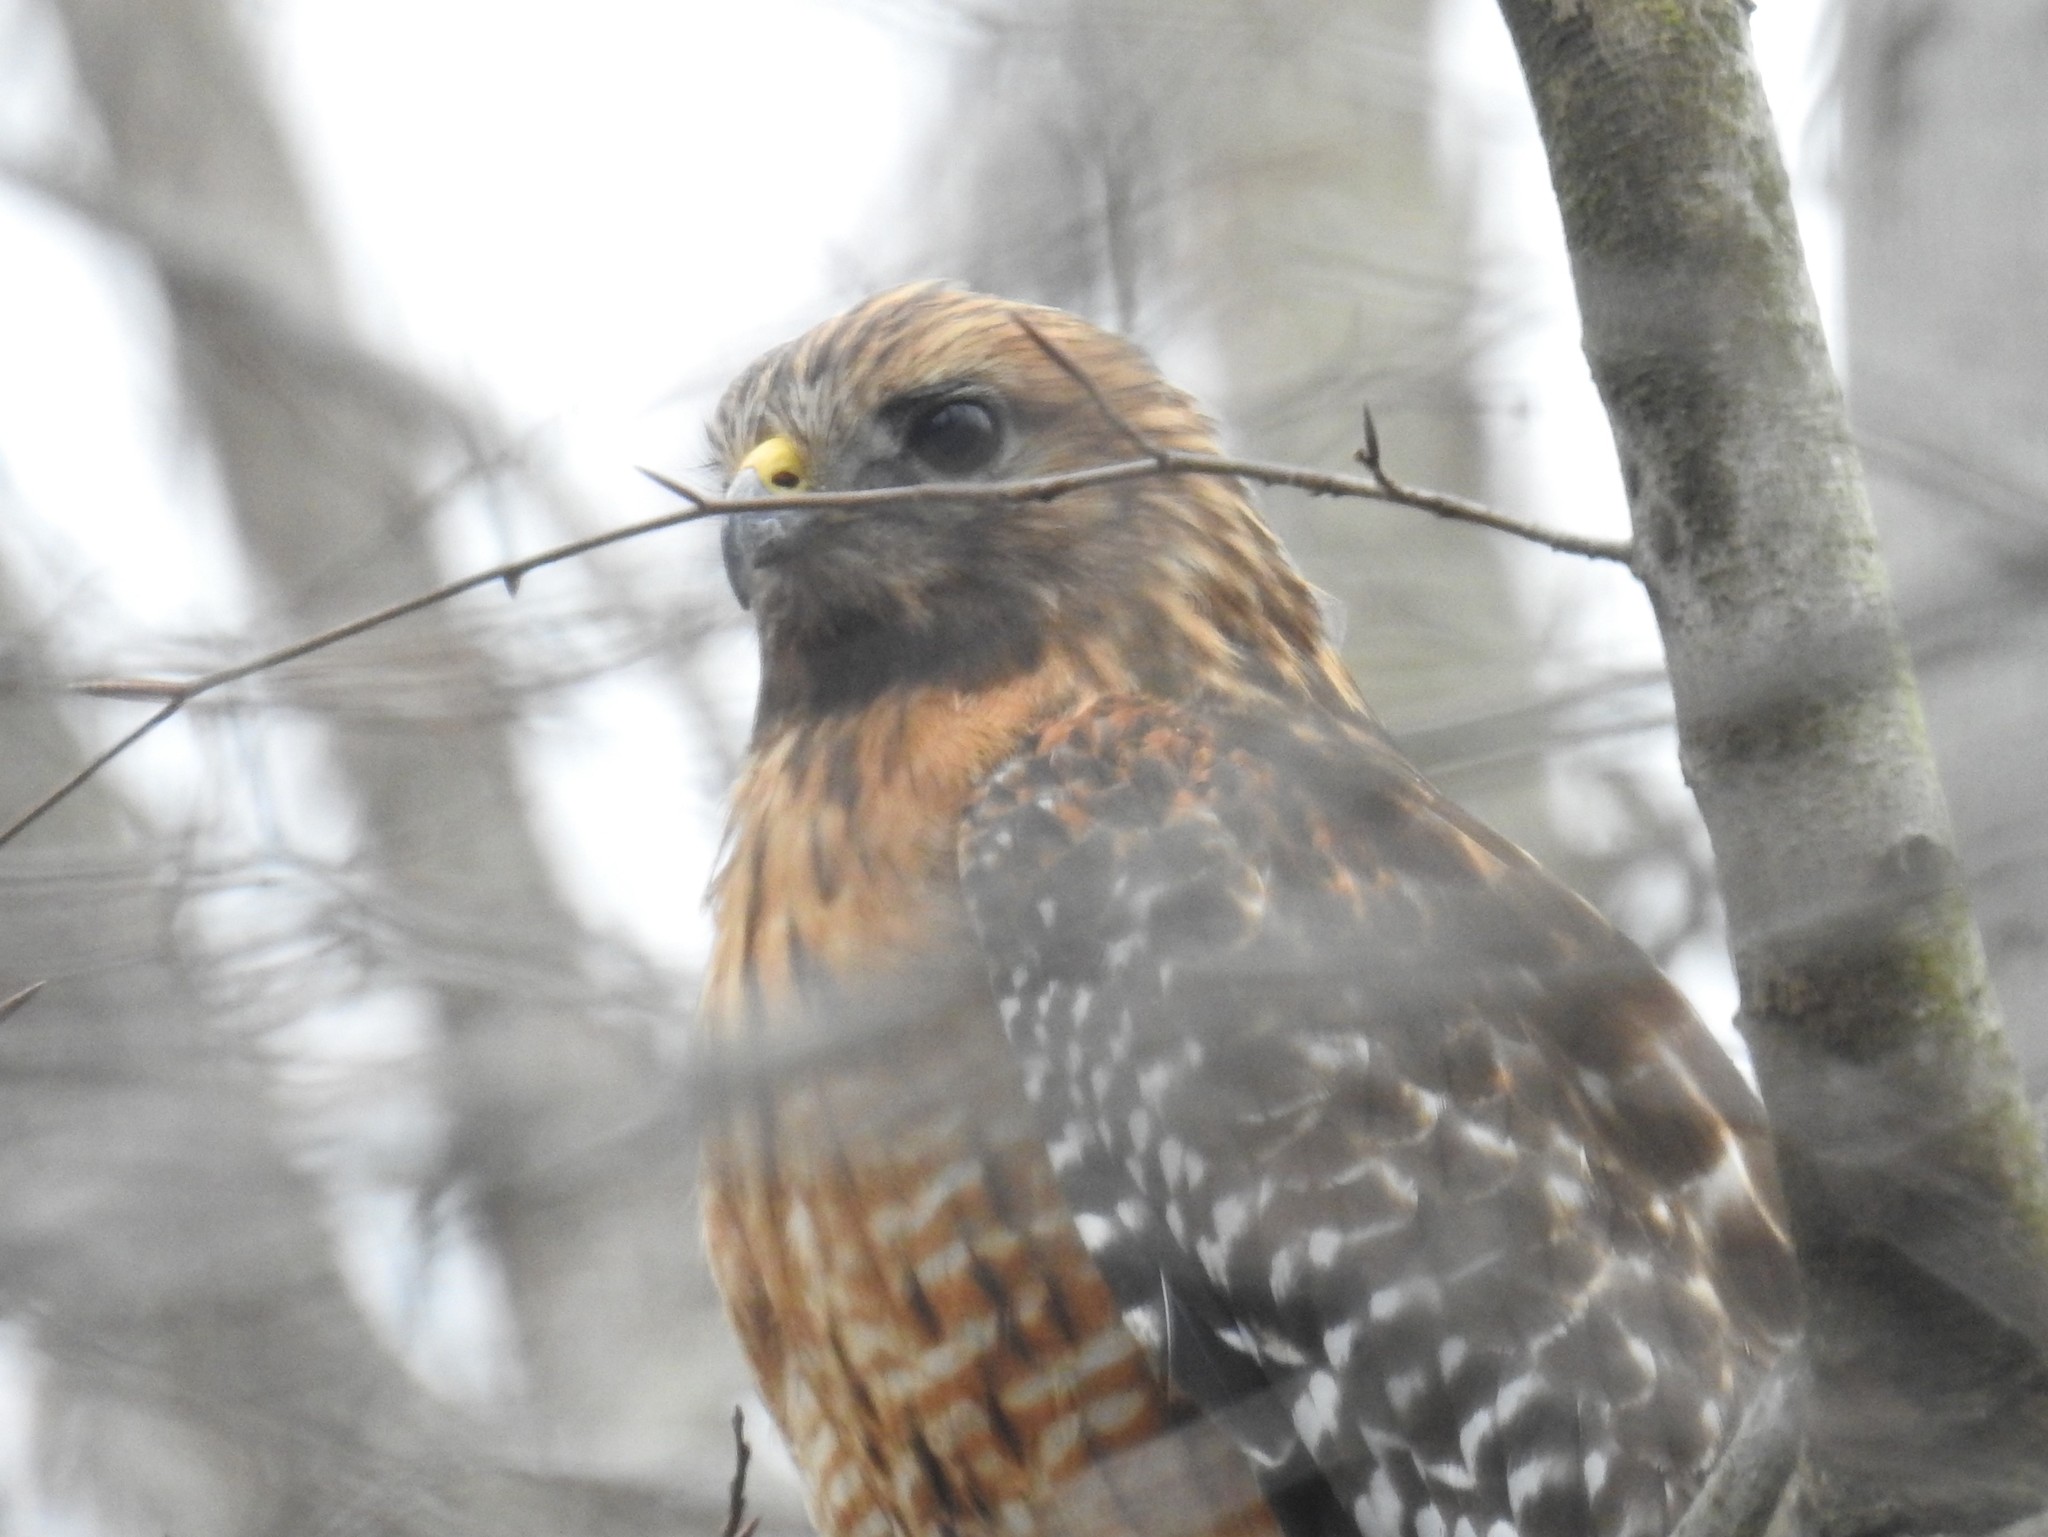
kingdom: Animalia
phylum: Chordata
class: Aves
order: Accipitriformes
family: Accipitridae
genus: Buteo
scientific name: Buteo lineatus
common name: Red-shouldered hawk
